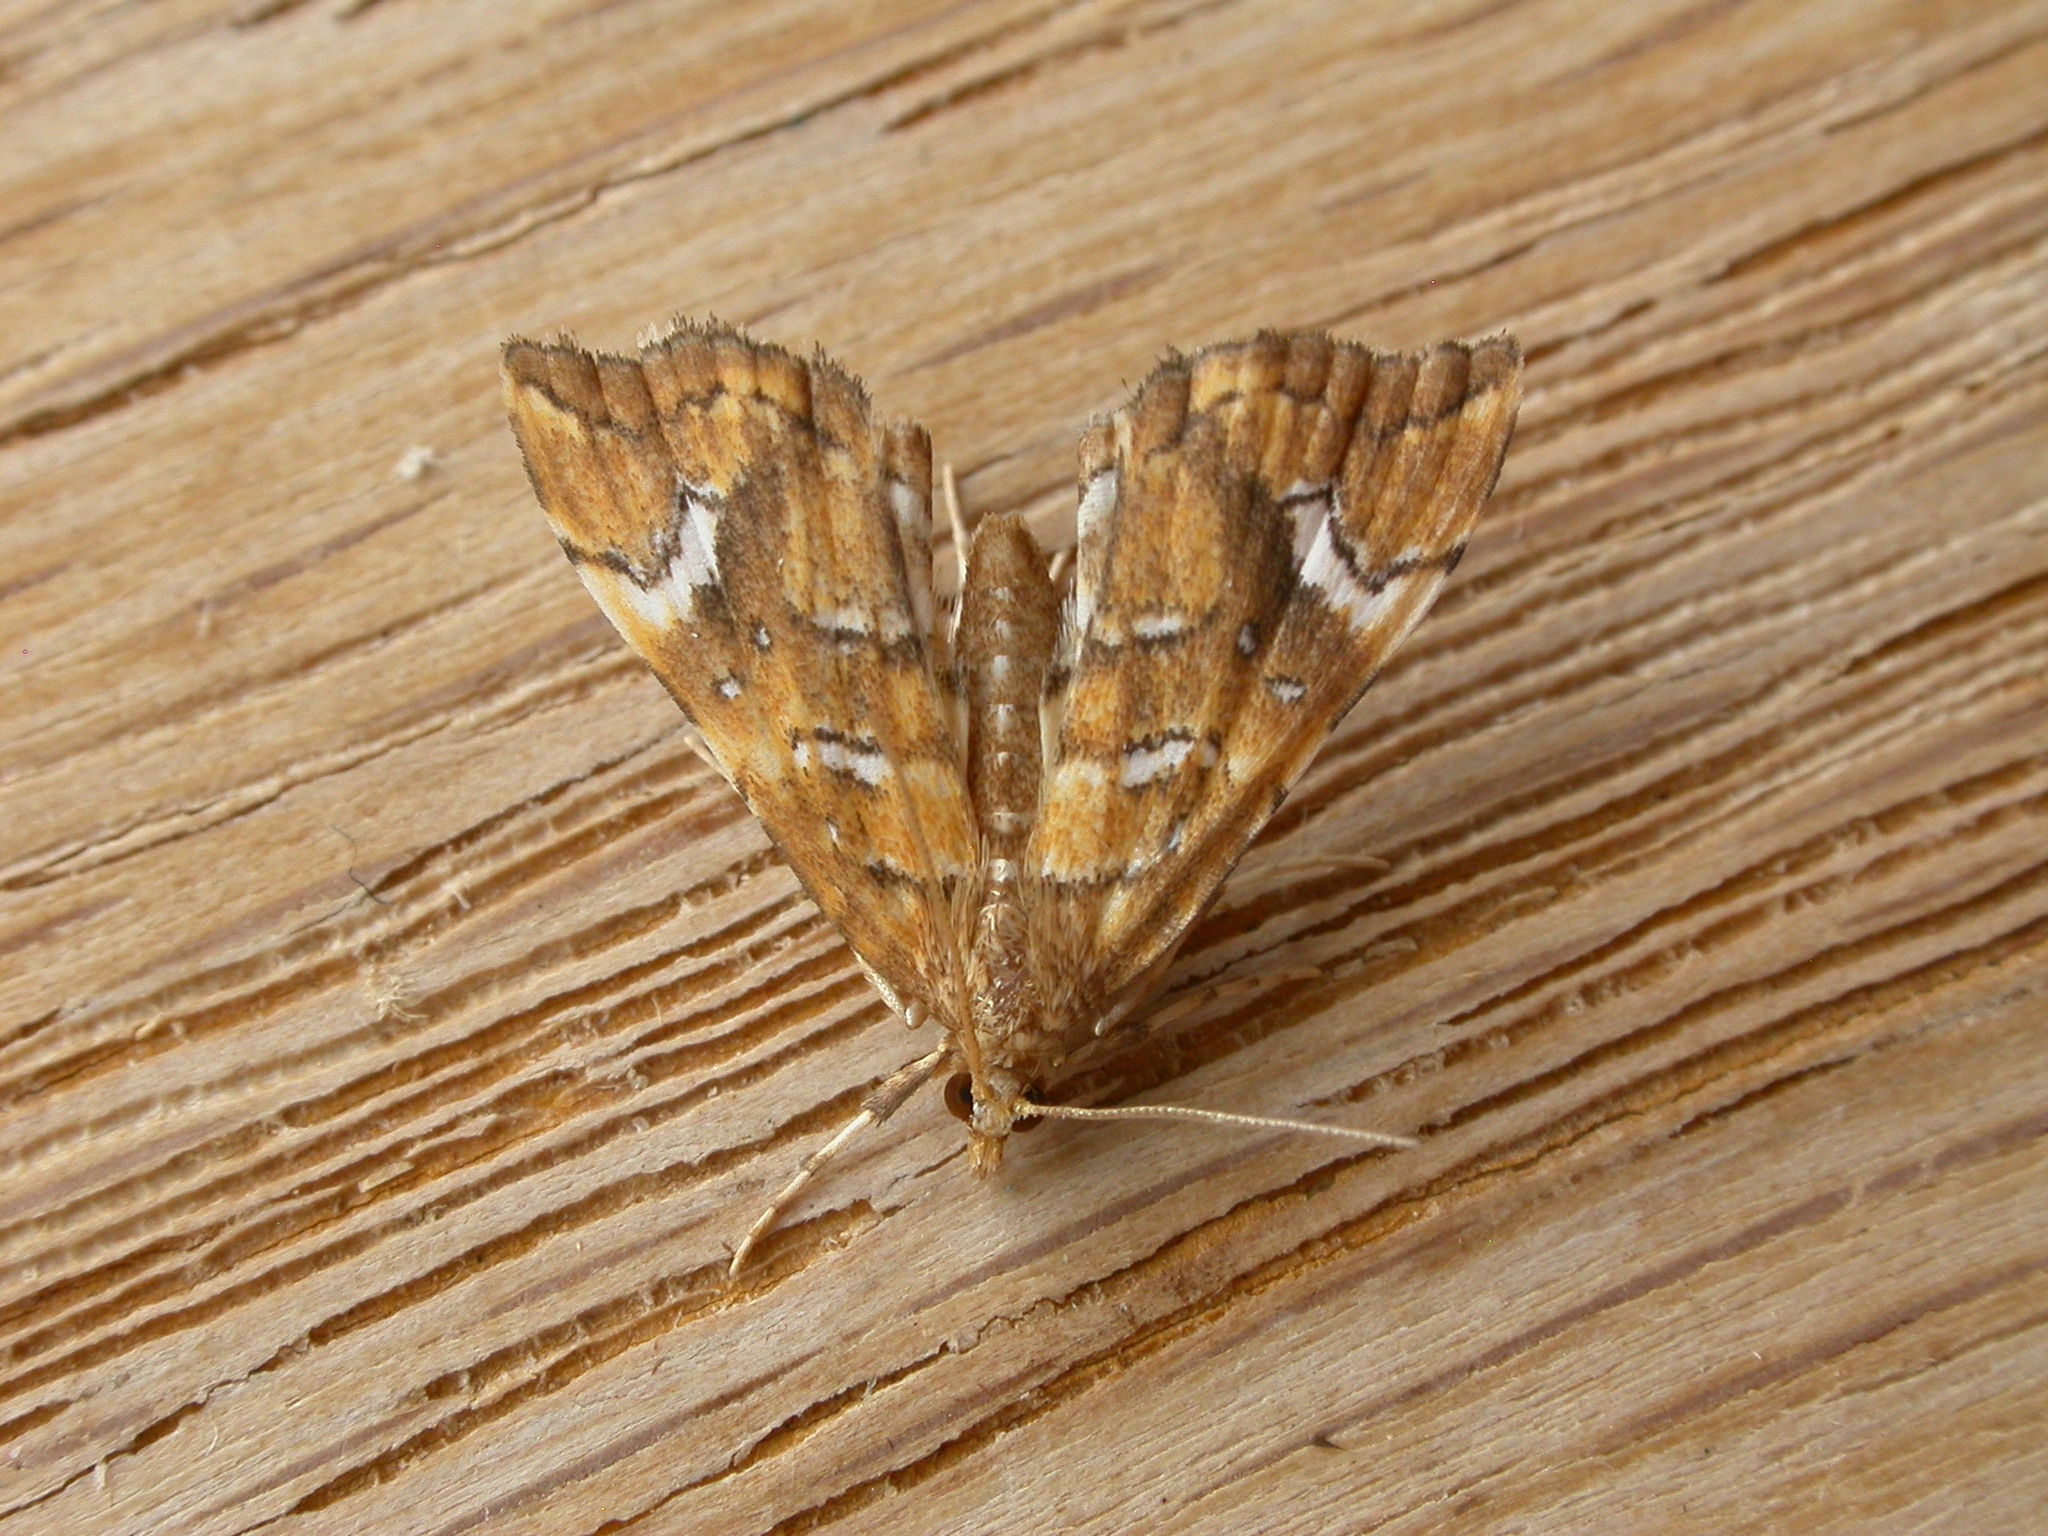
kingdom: Animalia
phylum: Arthropoda
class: Insecta
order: Lepidoptera
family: Pyralidae
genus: Musotima
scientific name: Musotima nitidalis
